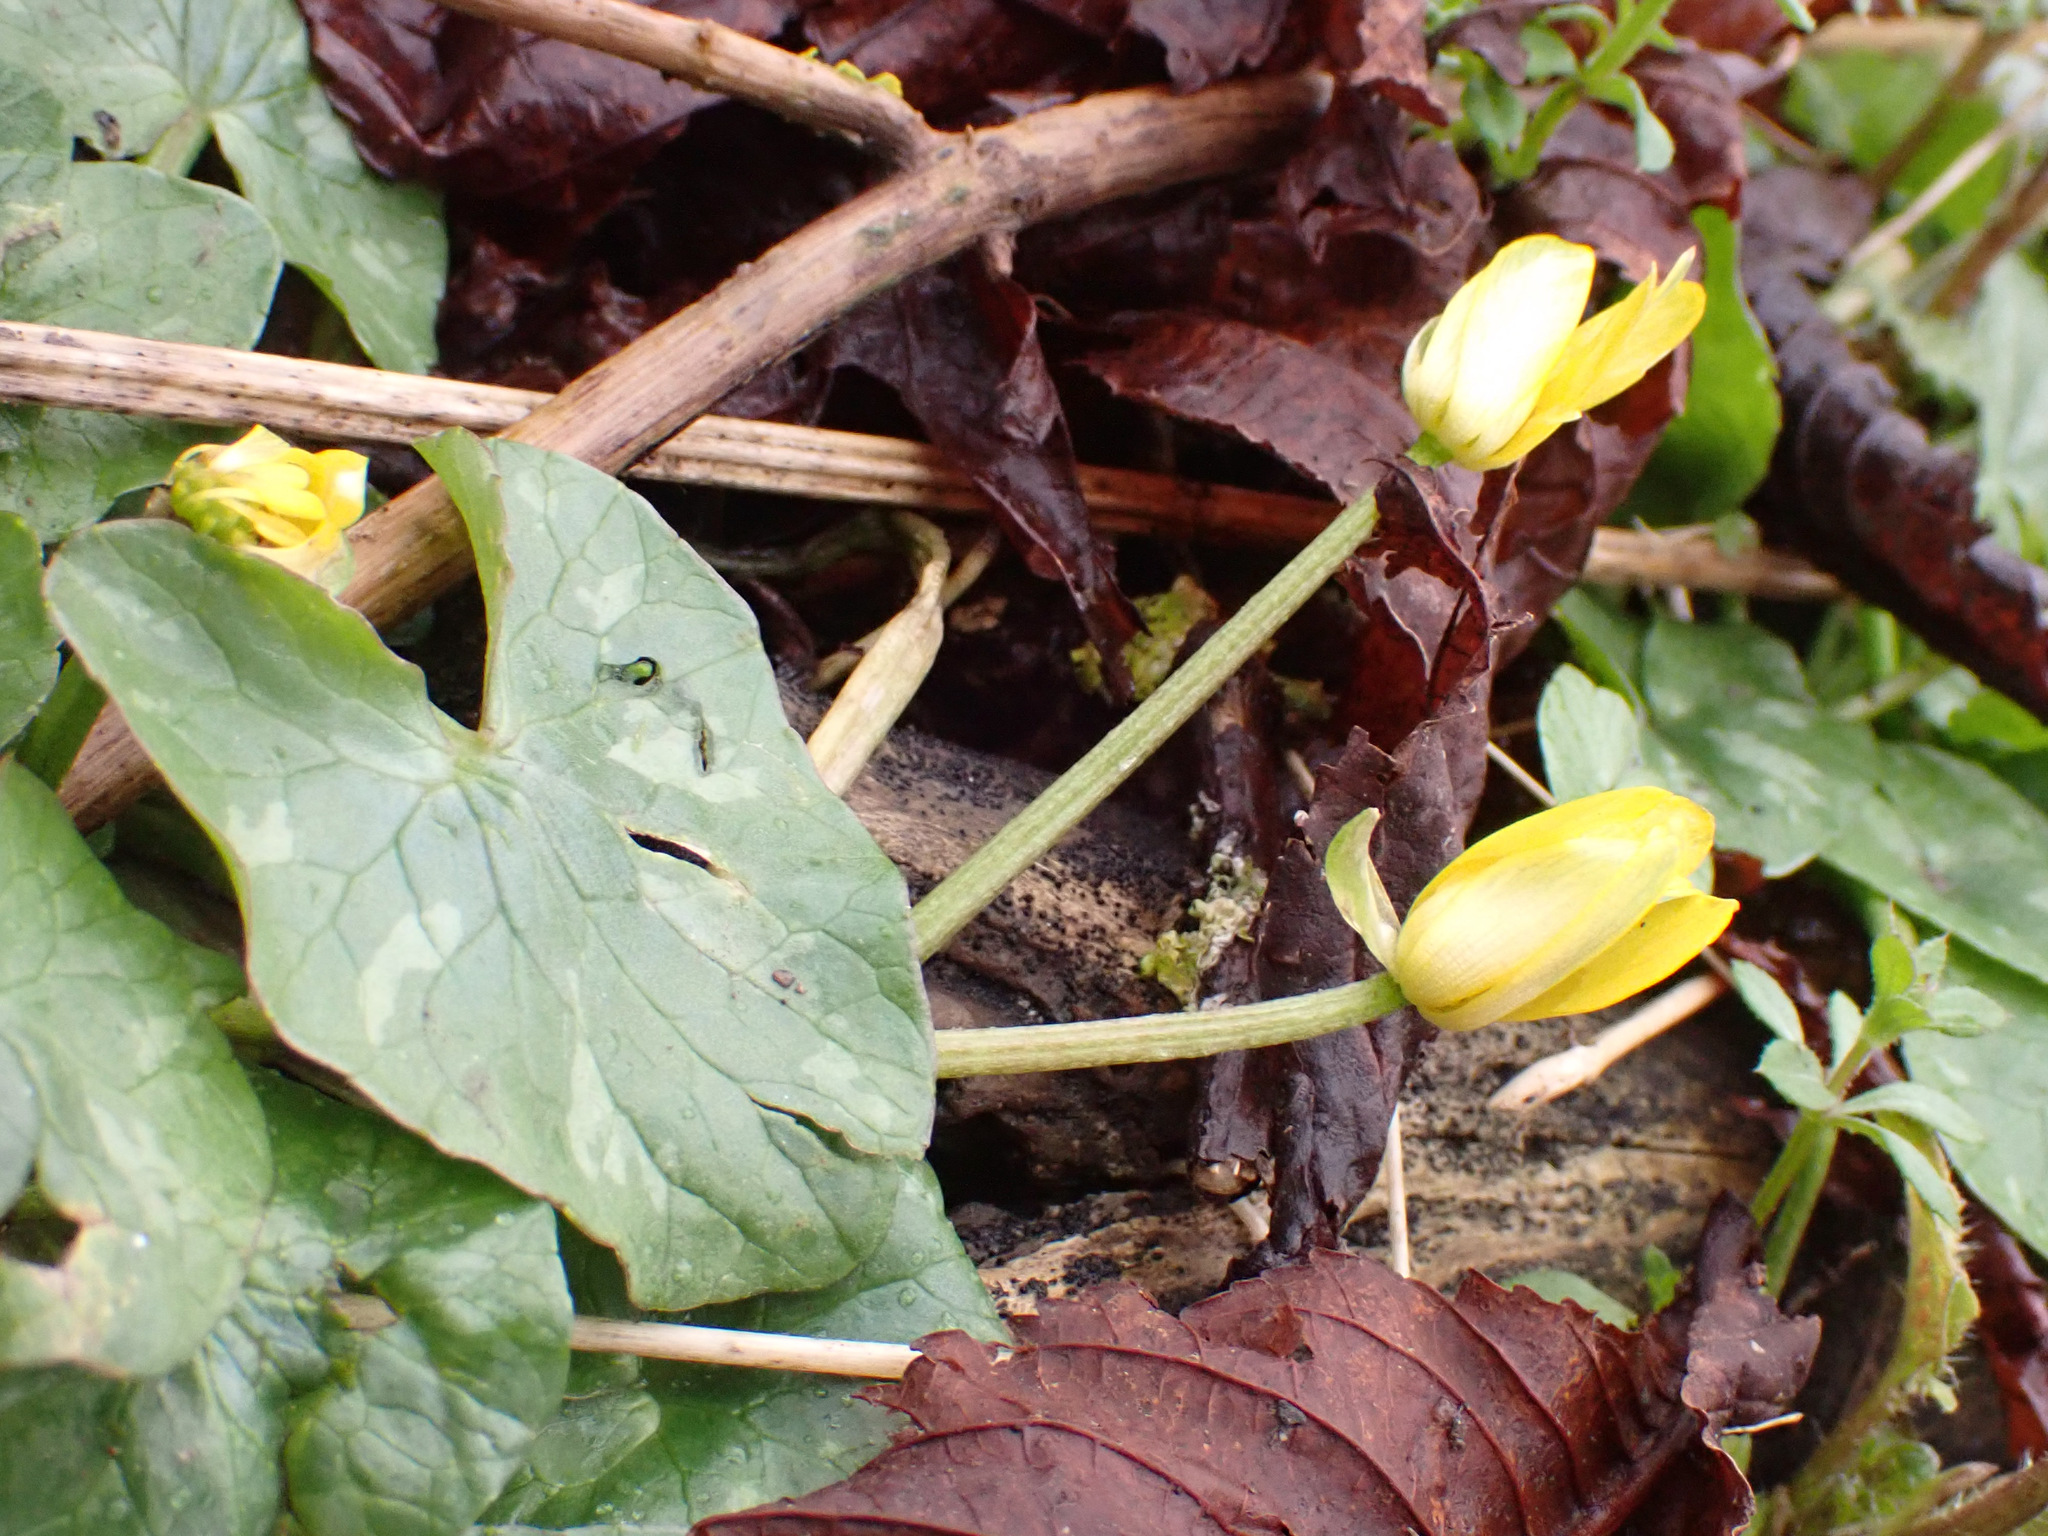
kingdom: Plantae
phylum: Tracheophyta
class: Magnoliopsida
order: Ranunculales
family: Ranunculaceae
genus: Ficaria
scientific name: Ficaria verna
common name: Lesser celandine
